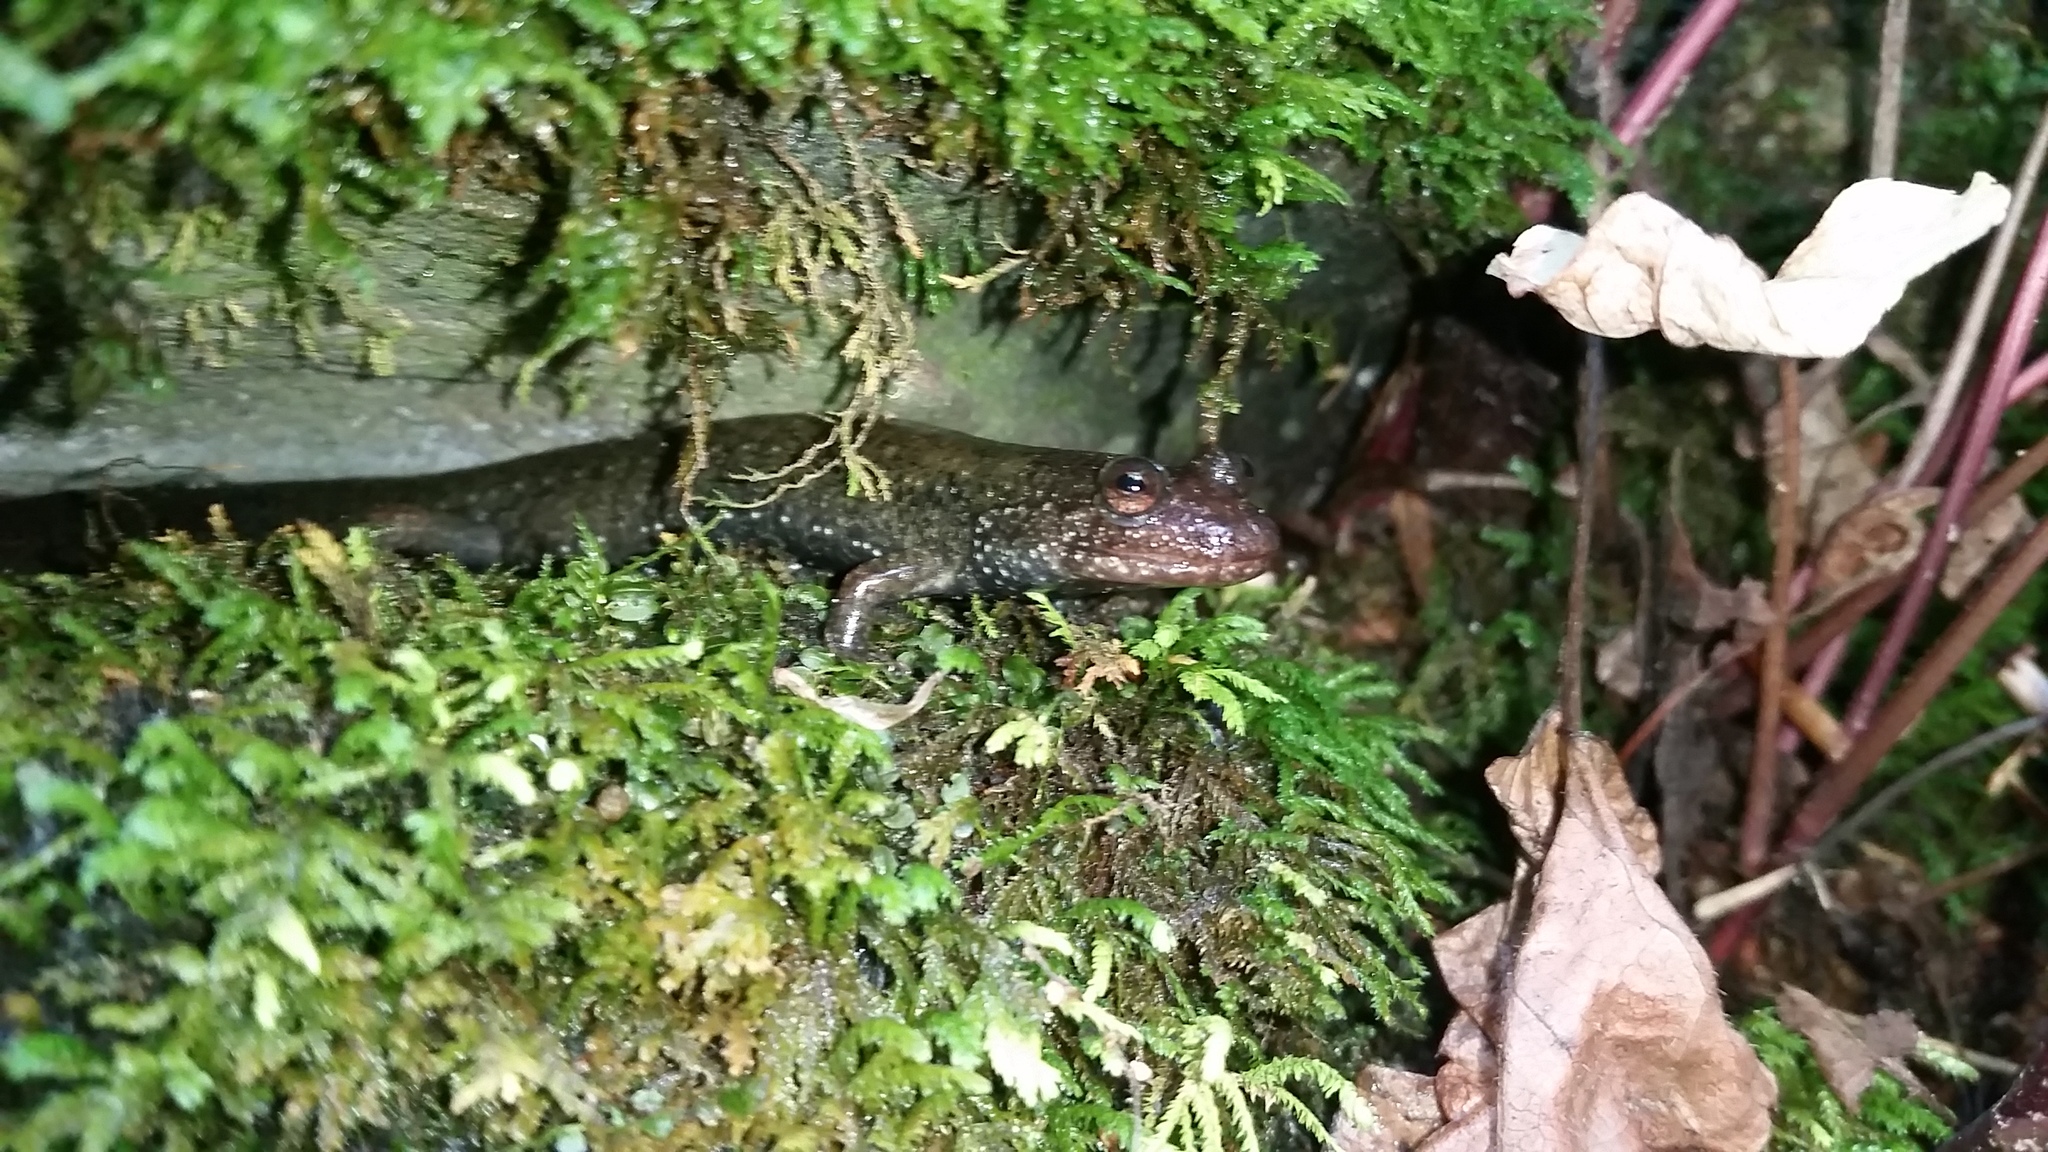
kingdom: Animalia
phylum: Chordata
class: Amphibia
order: Caudata
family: Plethodontidae
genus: Desmognathus
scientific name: Desmognathus
